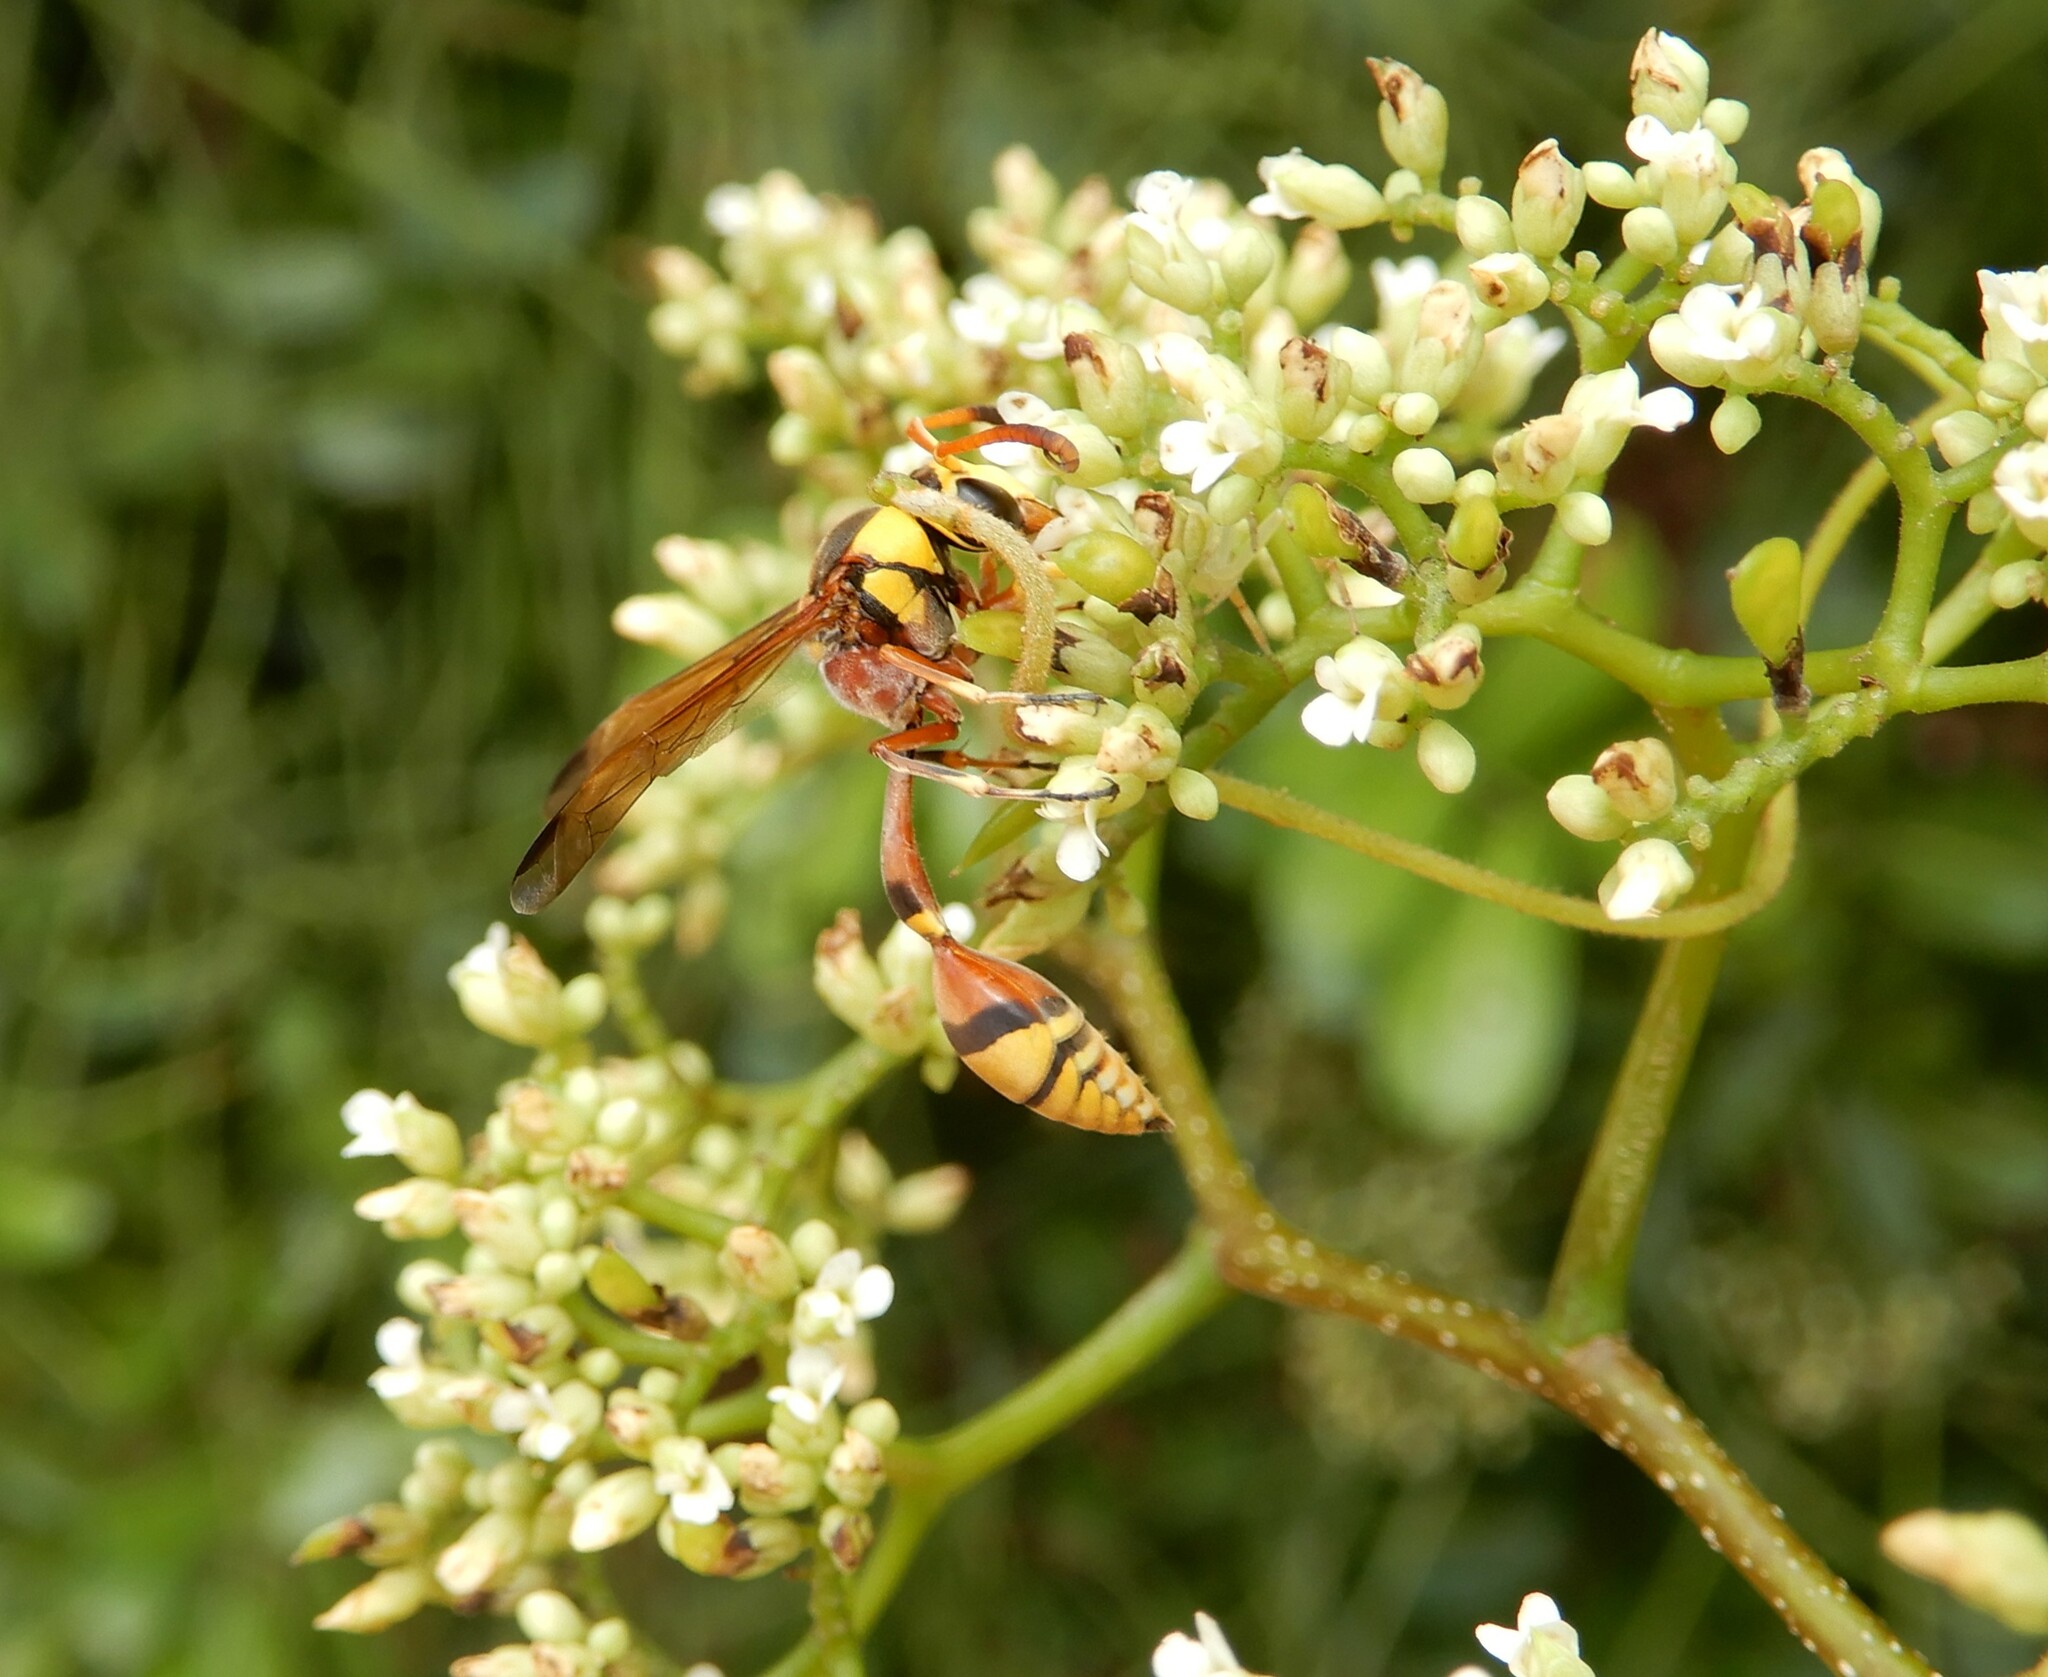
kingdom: Animalia
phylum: Arthropoda
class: Insecta
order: Hymenoptera
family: Eumenidae
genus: Delta
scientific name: Delta esuriens
